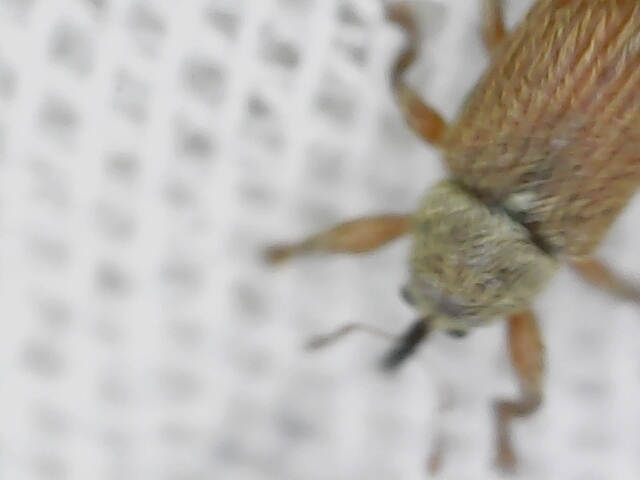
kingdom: Animalia
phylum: Arthropoda
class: Insecta
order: Coleoptera
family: Curculionidae
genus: Brachonyx
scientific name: Brachonyx pineti
